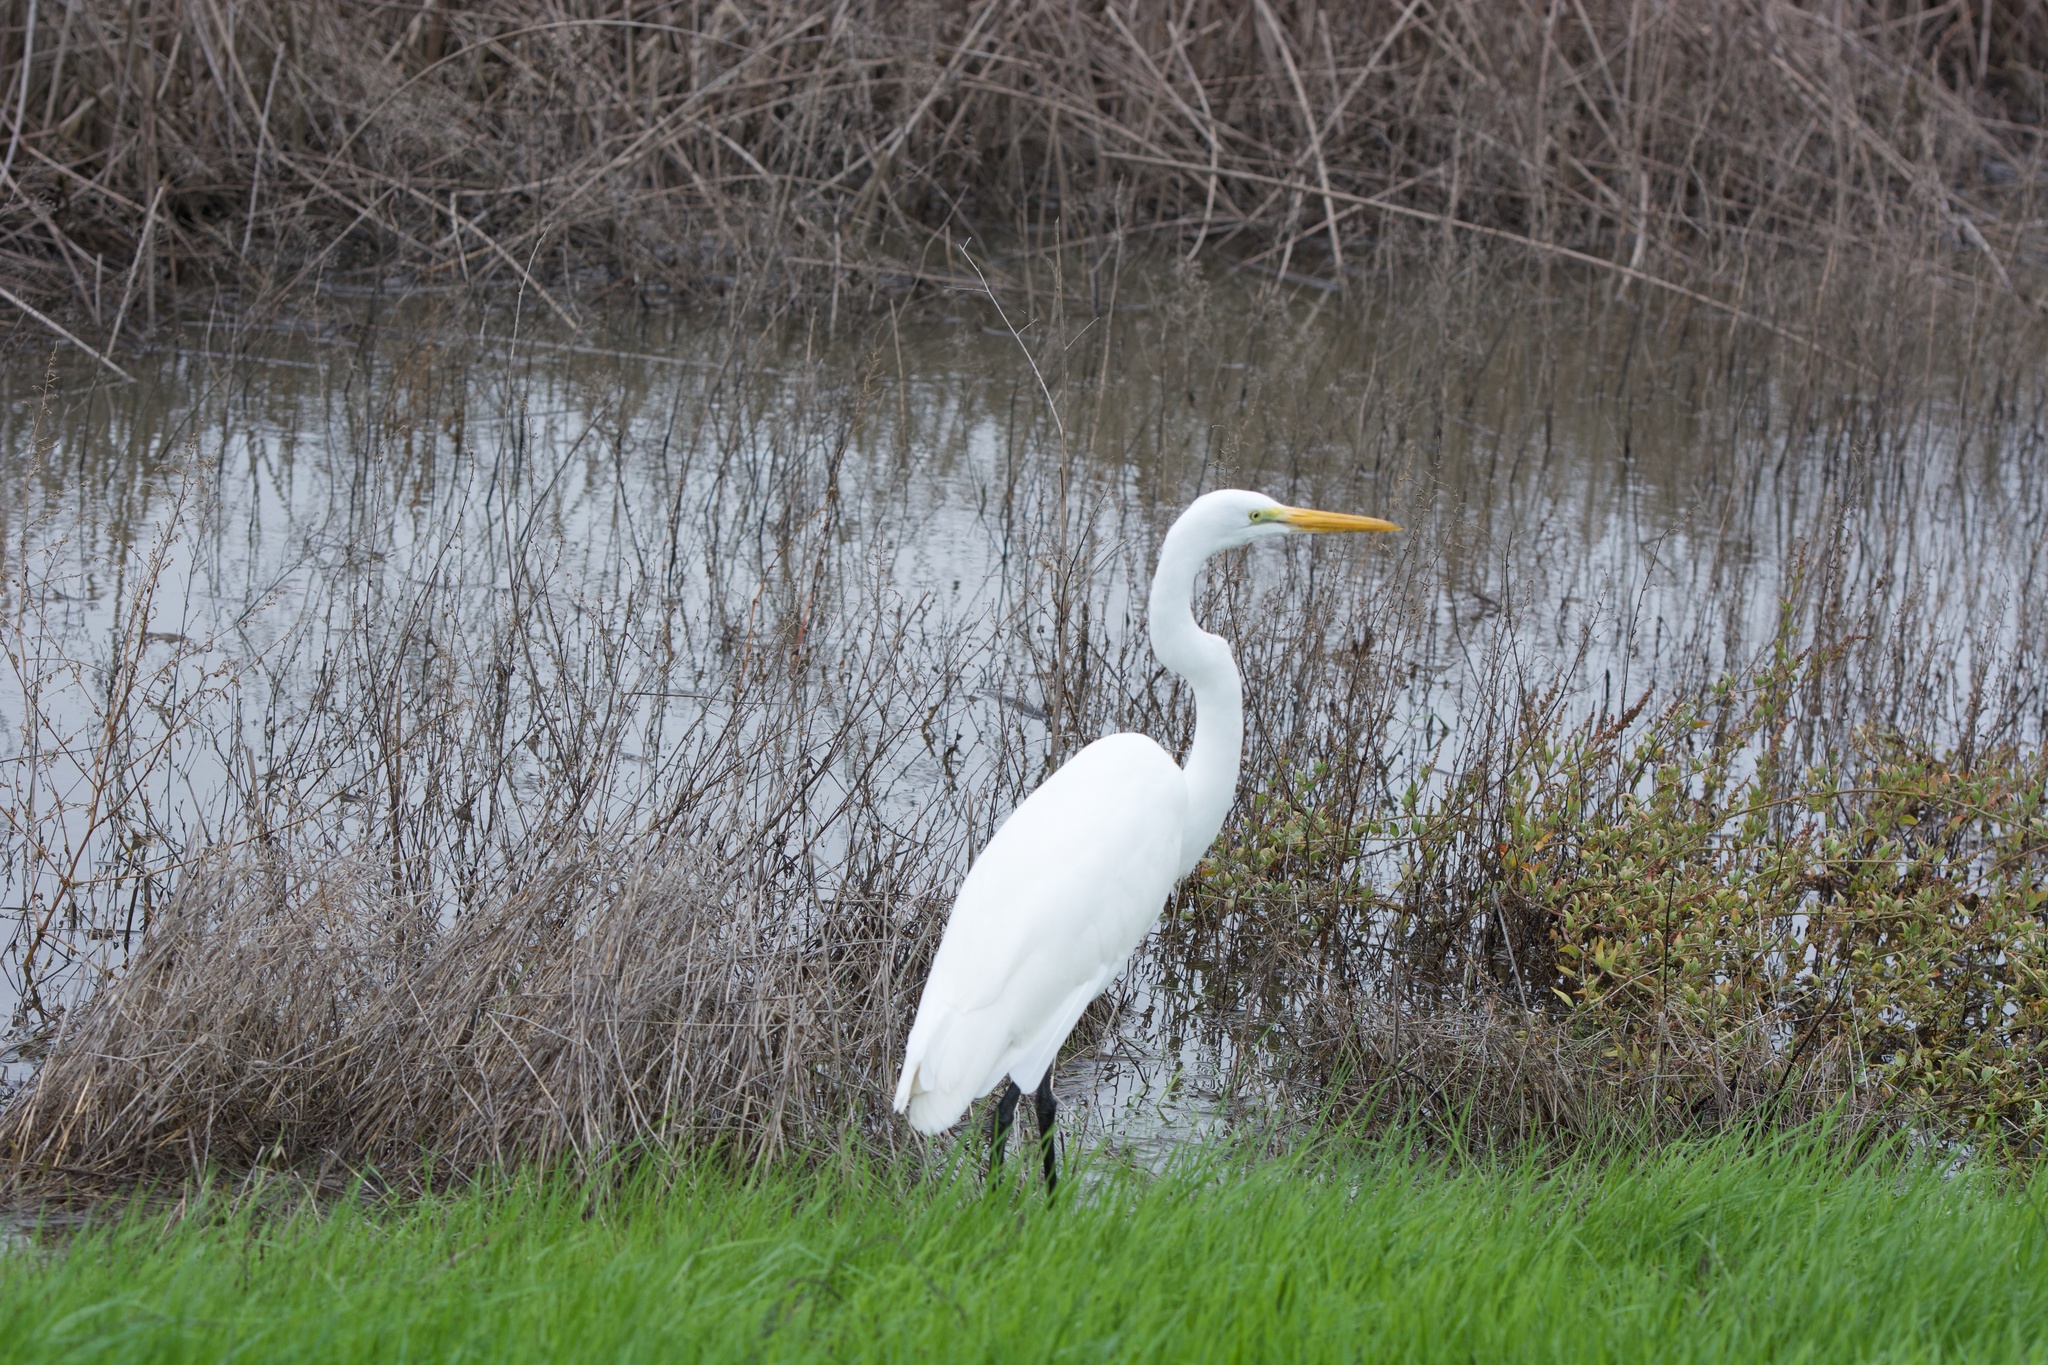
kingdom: Animalia
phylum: Chordata
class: Aves
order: Pelecaniformes
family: Ardeidae
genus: Ardea
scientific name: Ardea alba
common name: Great egret
